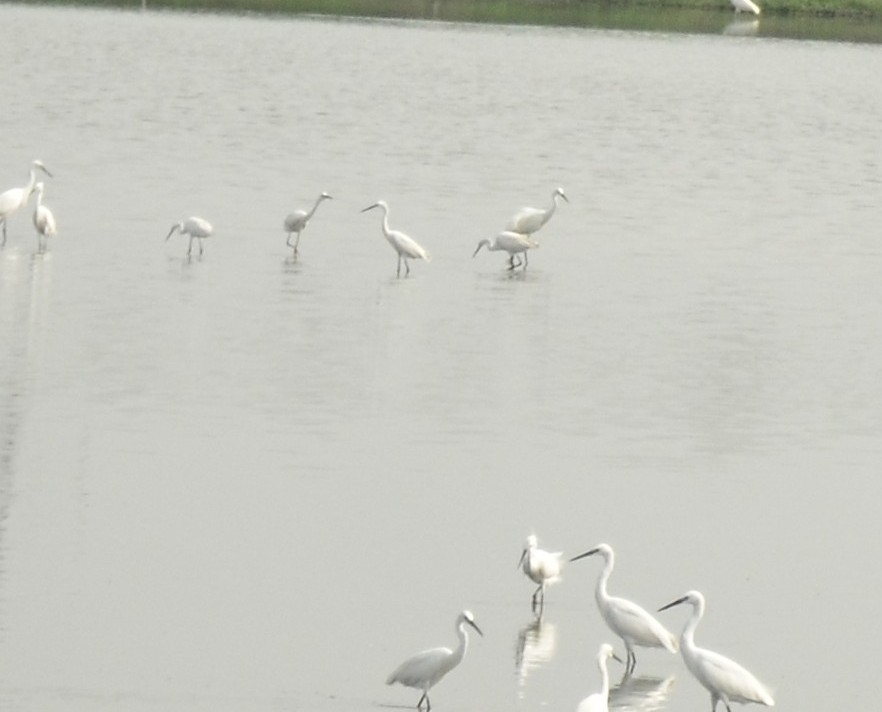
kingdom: Animalia
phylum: Chordata
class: Aves
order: Pelecaniformes
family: Ardeidae
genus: Egretta
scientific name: Egretta garzetta
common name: Little egret
